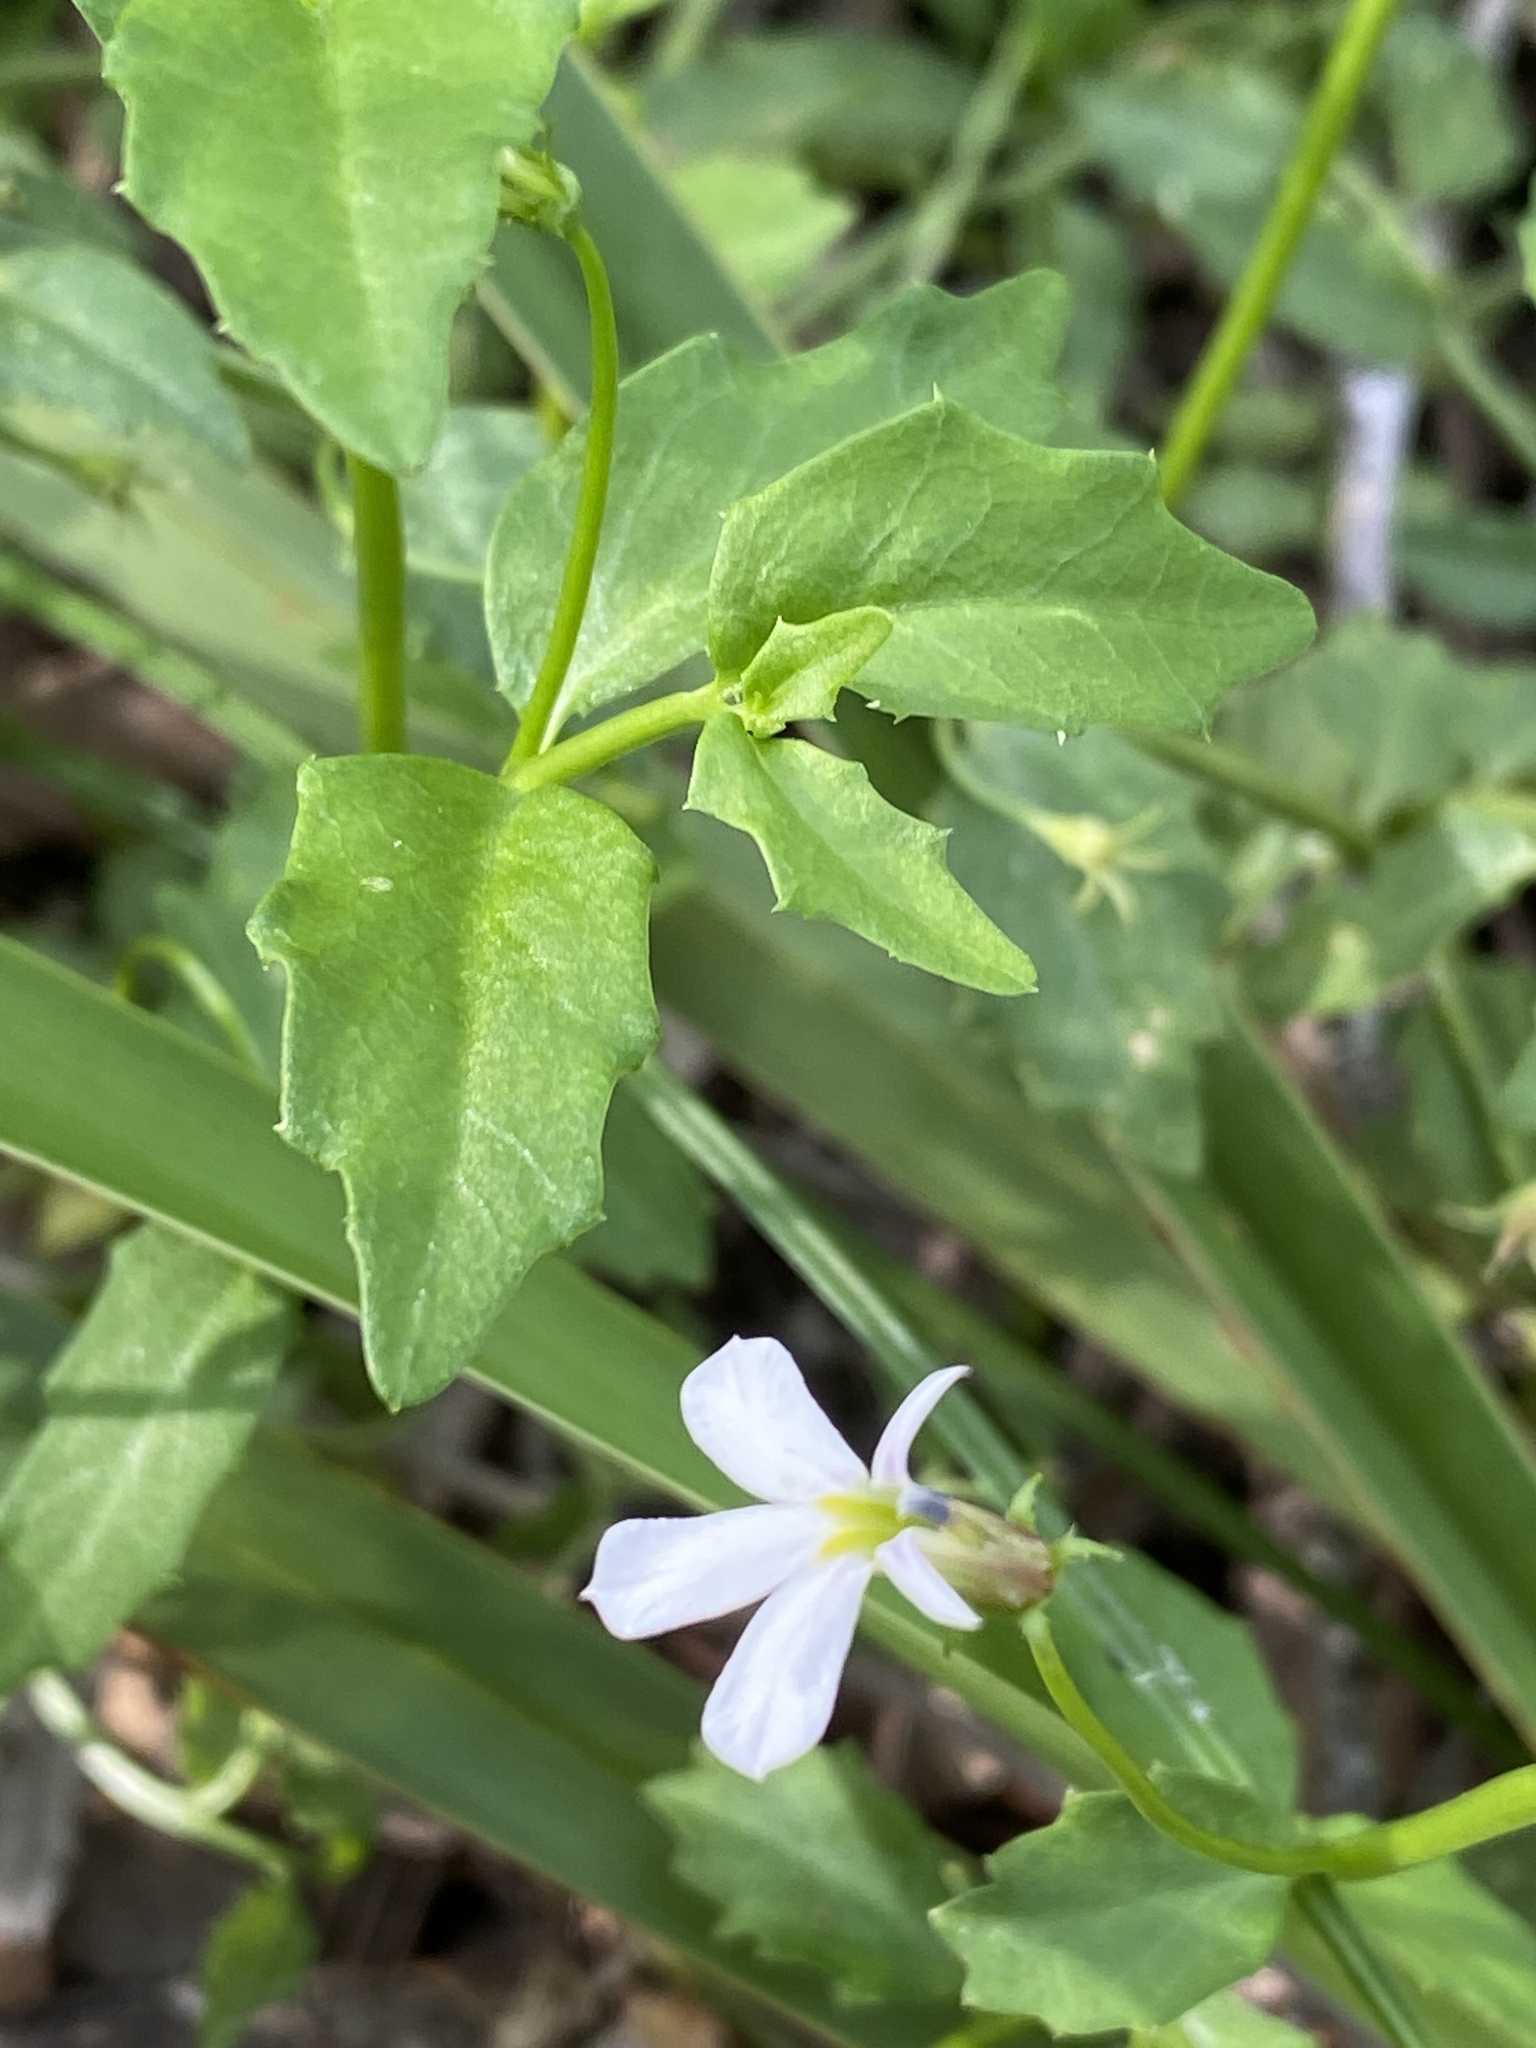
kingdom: Plantae
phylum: Tracheophyta
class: Magnoliopsida
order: Asterales
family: Campanulaceae
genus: Lobelia
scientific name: Lobelia purpurascens
